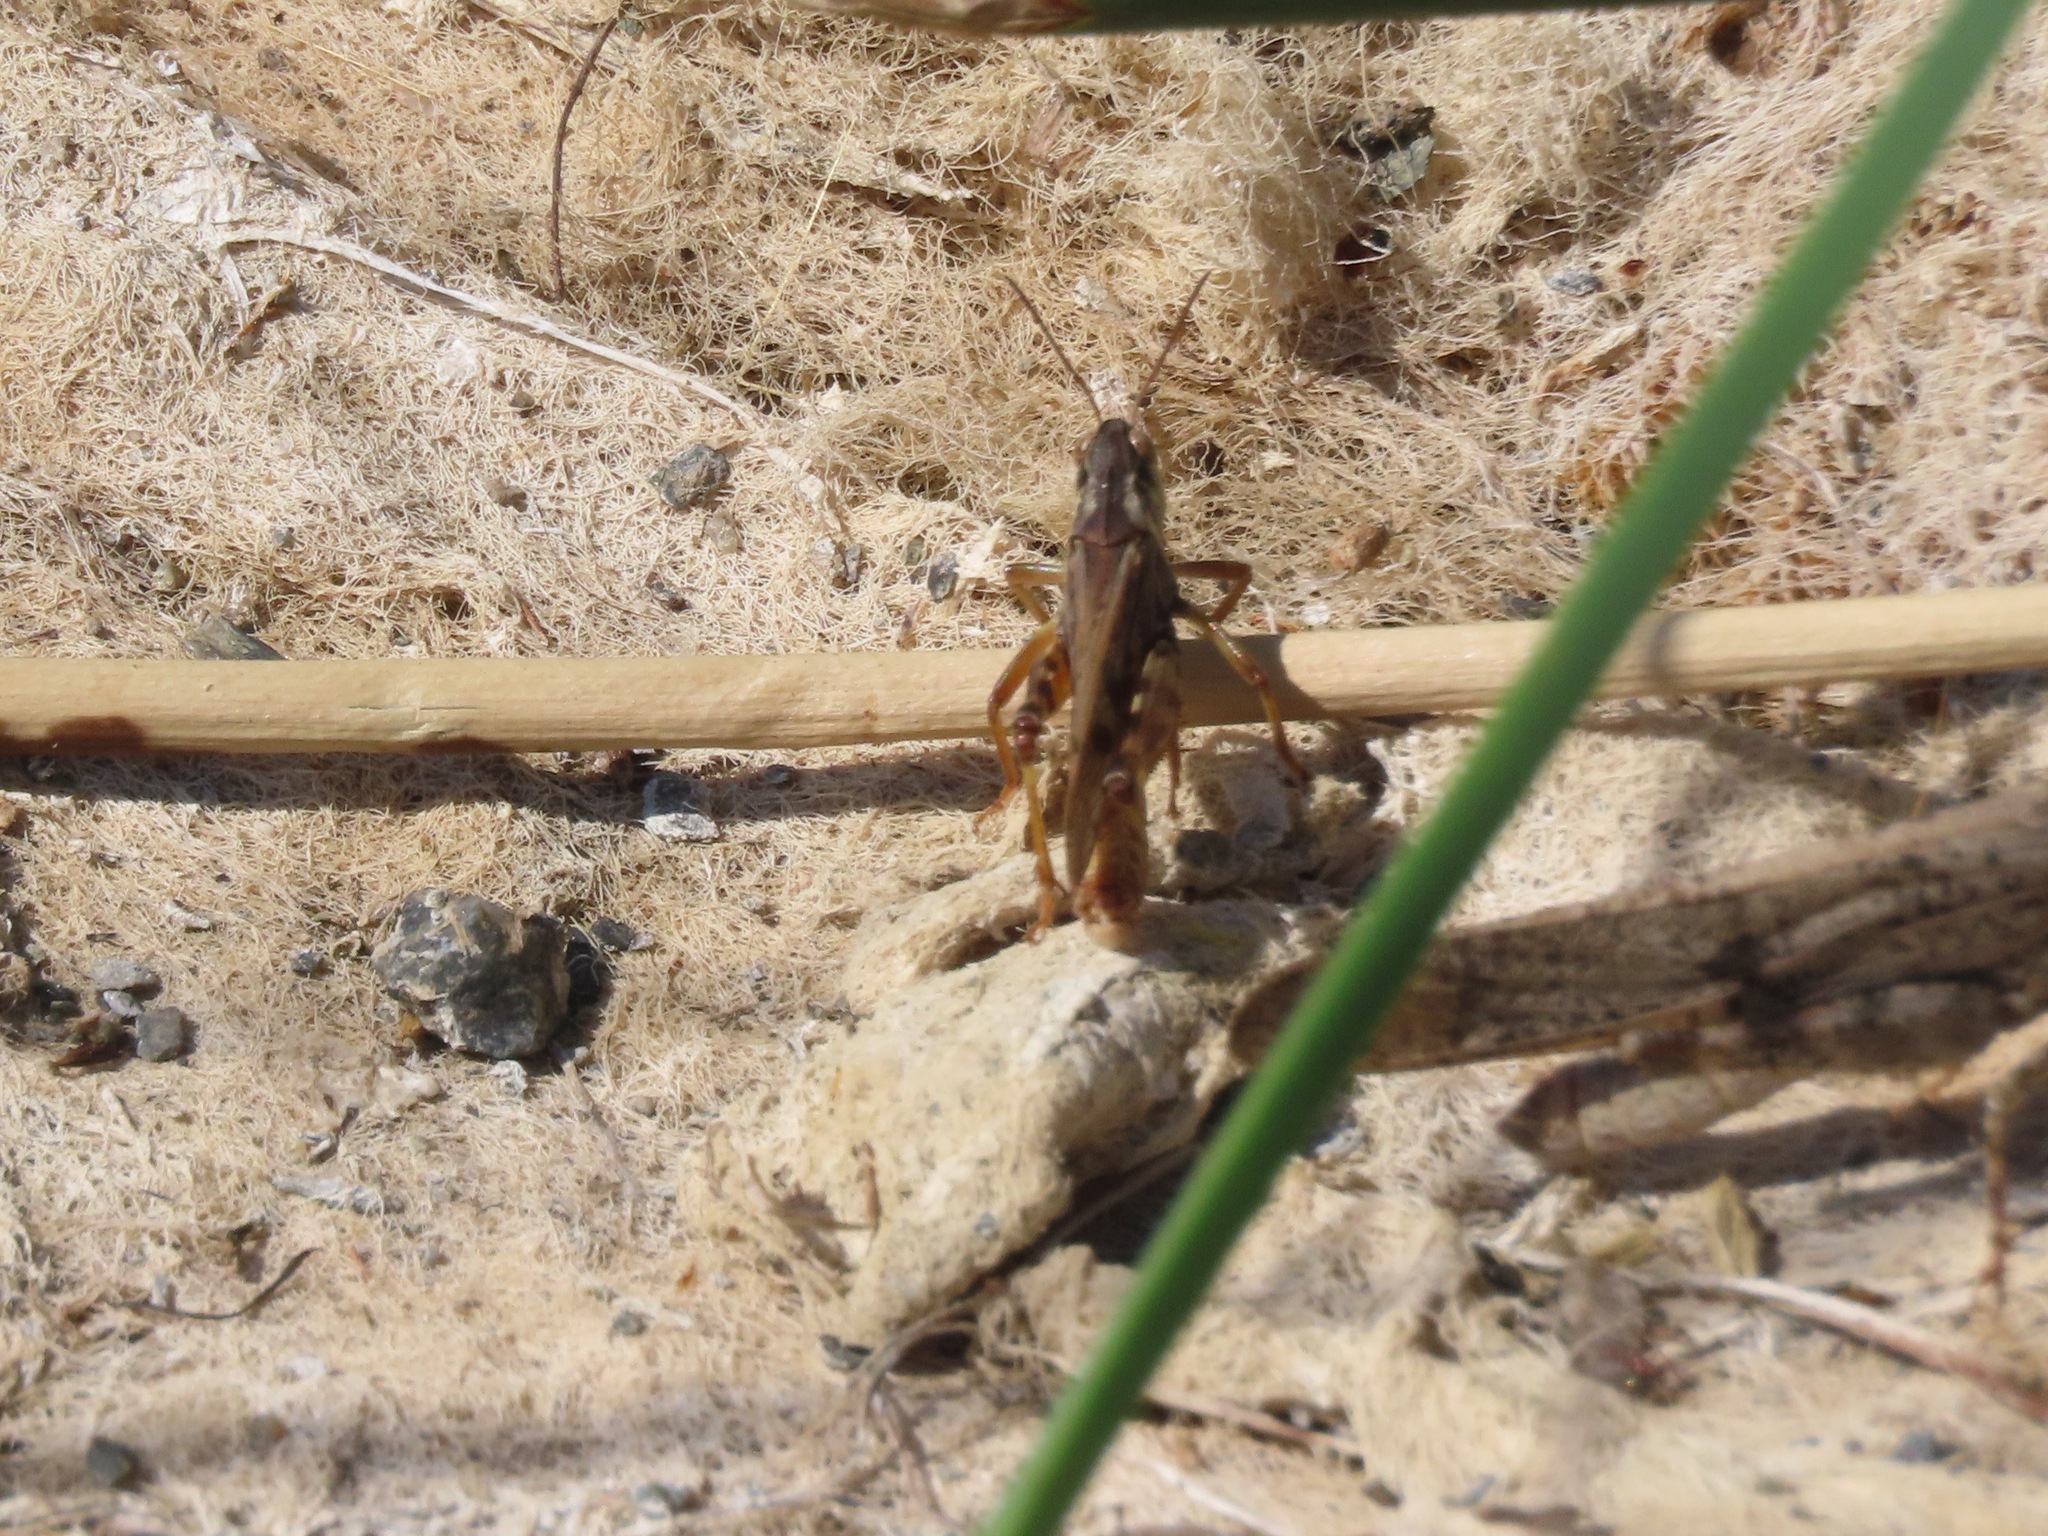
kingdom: Animalia
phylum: Arthropoda
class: Insecta
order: Orthoptera
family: Acrididae
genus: Camnula
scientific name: Camnula pellucida
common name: Clear-winged grasshopper
